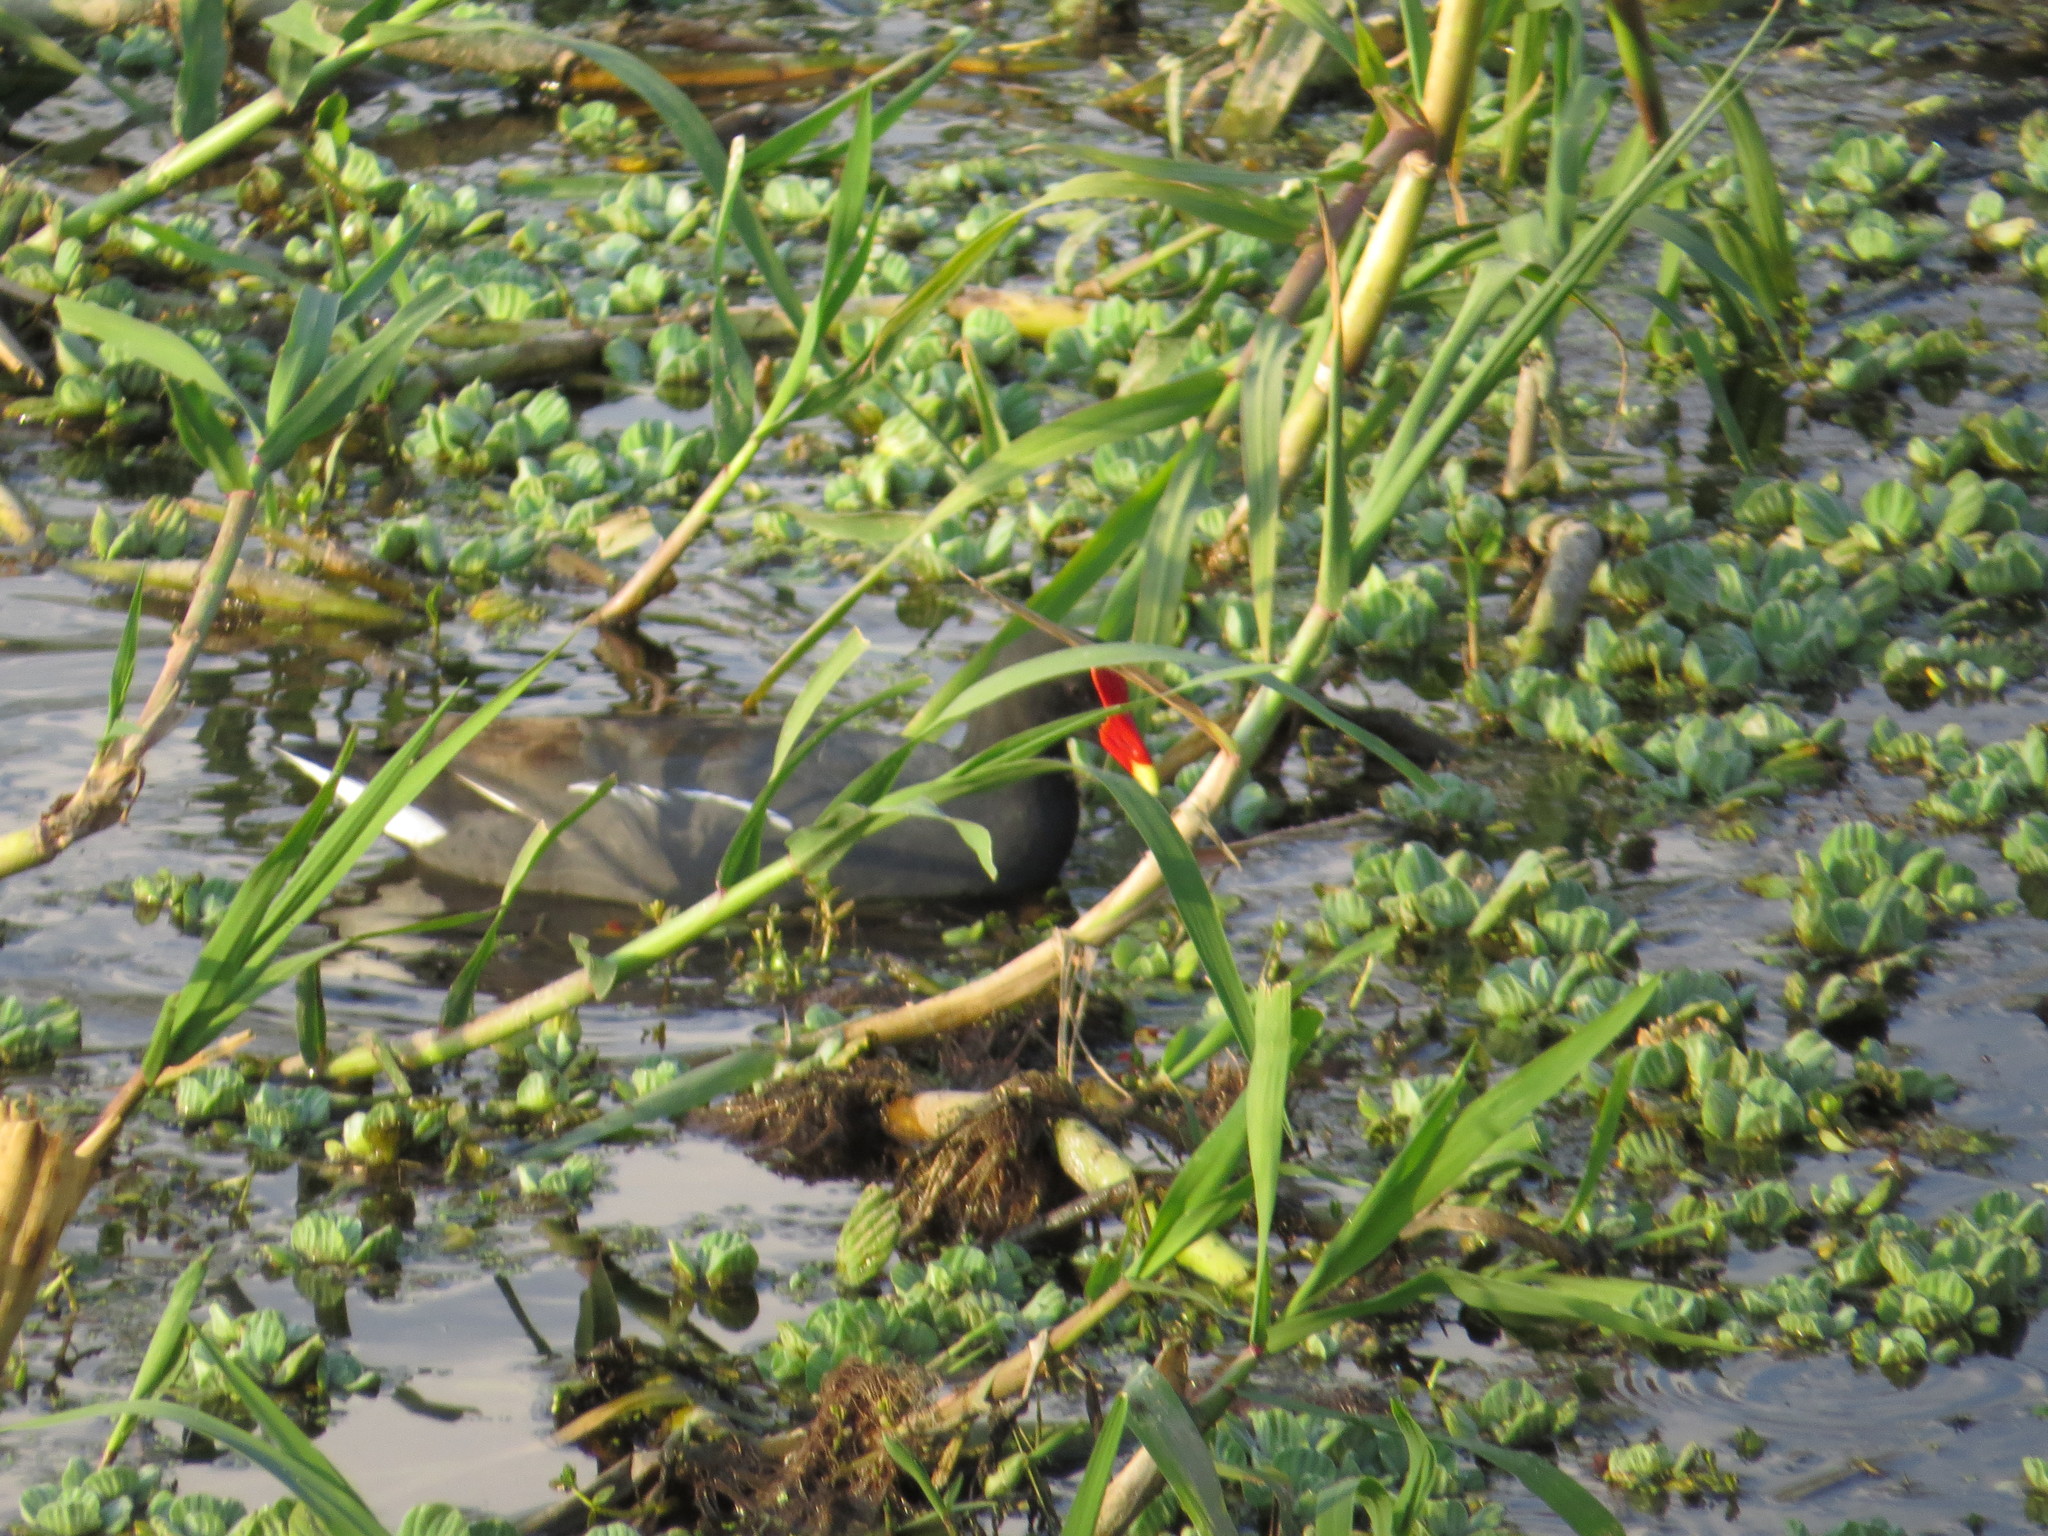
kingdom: Animalia
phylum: Chordata
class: Aves
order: Gruiformes
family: Rallidae
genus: Gallinula
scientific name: Gallinula chloropus
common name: Common moorhen
